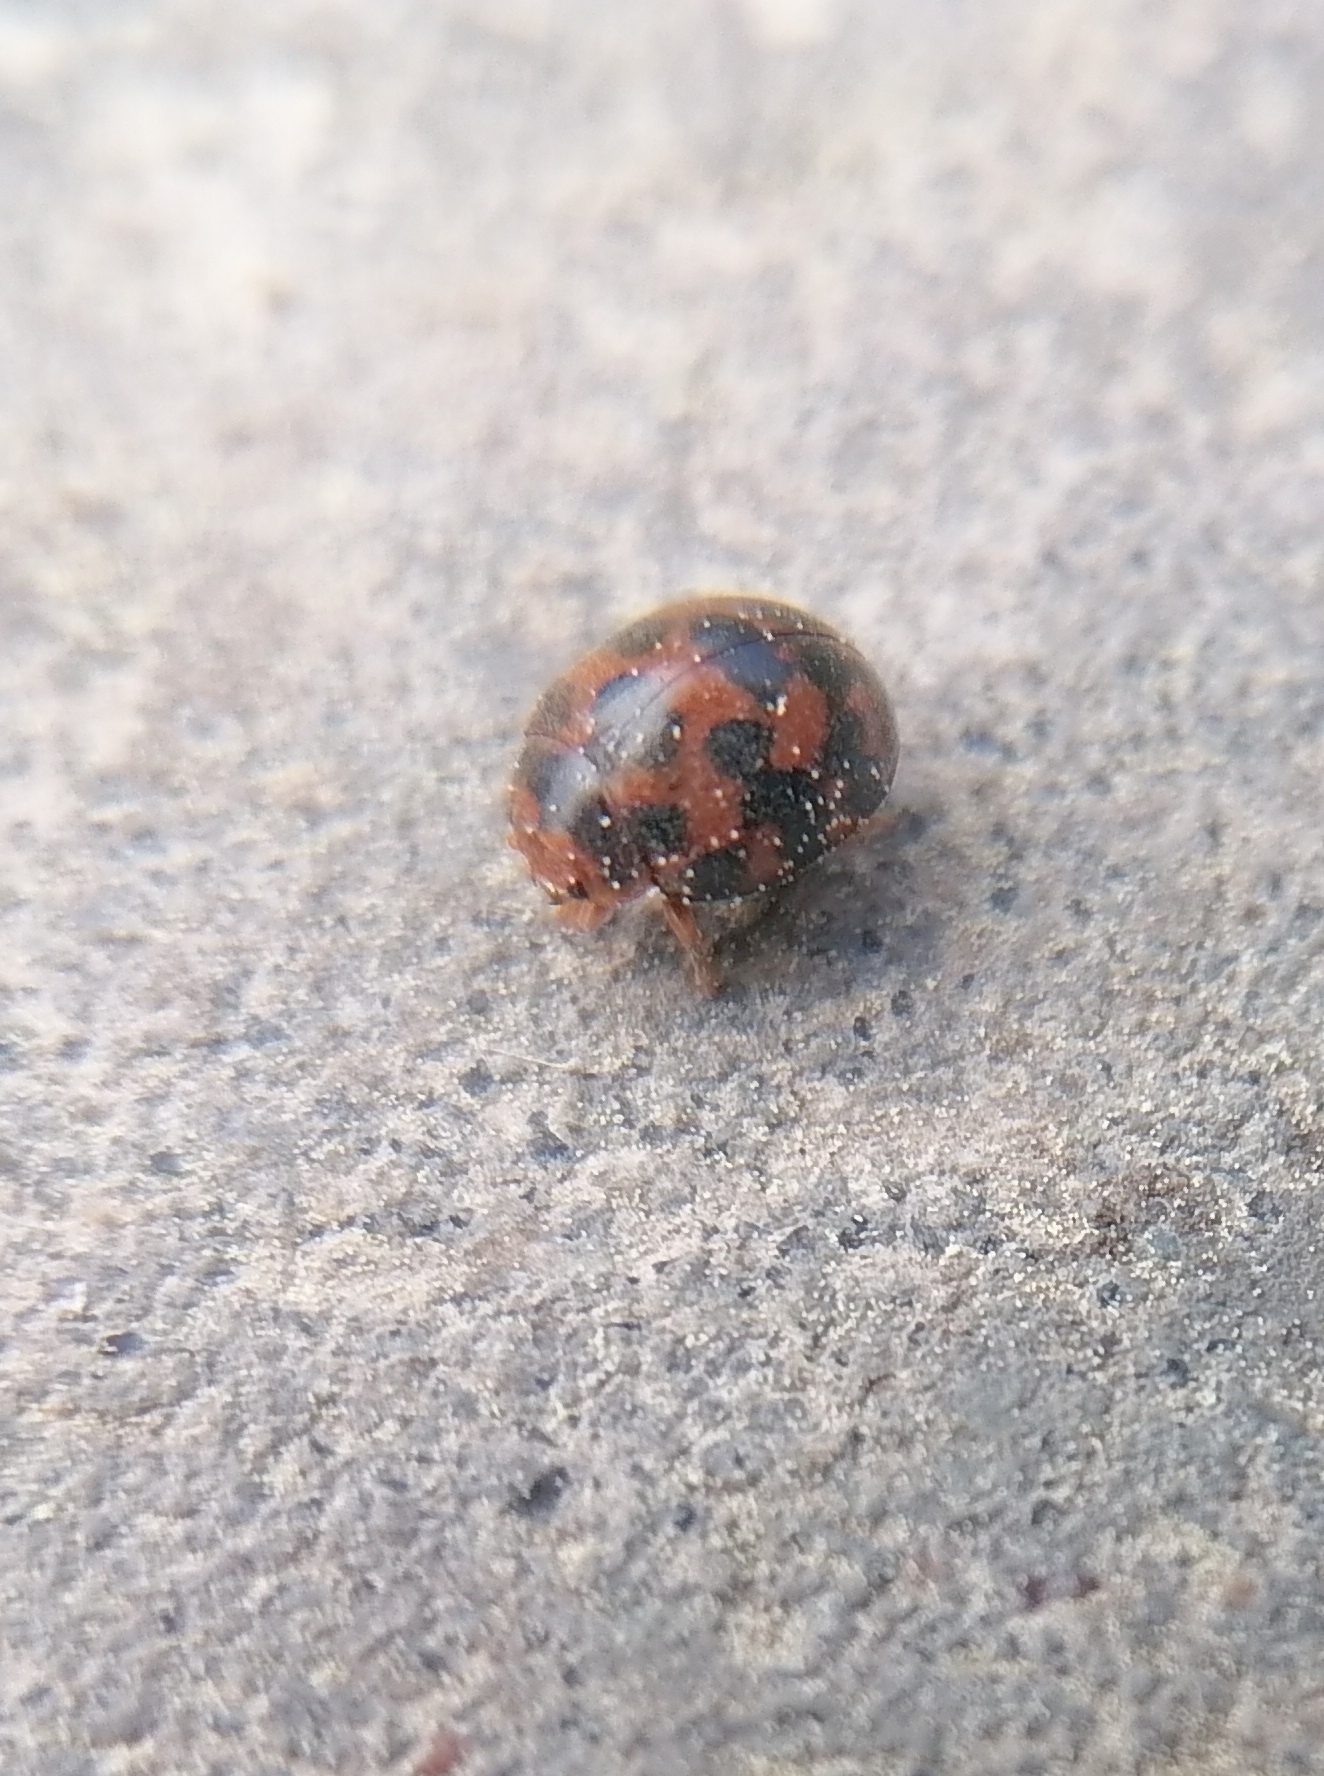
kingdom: Animalia
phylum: Arthropoda
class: Insecta
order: Coleoptera
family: Coccinellidae
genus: Subcoccinella
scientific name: Subcoccinella vigintiquatuorpunctata
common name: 24-spot ladybird
